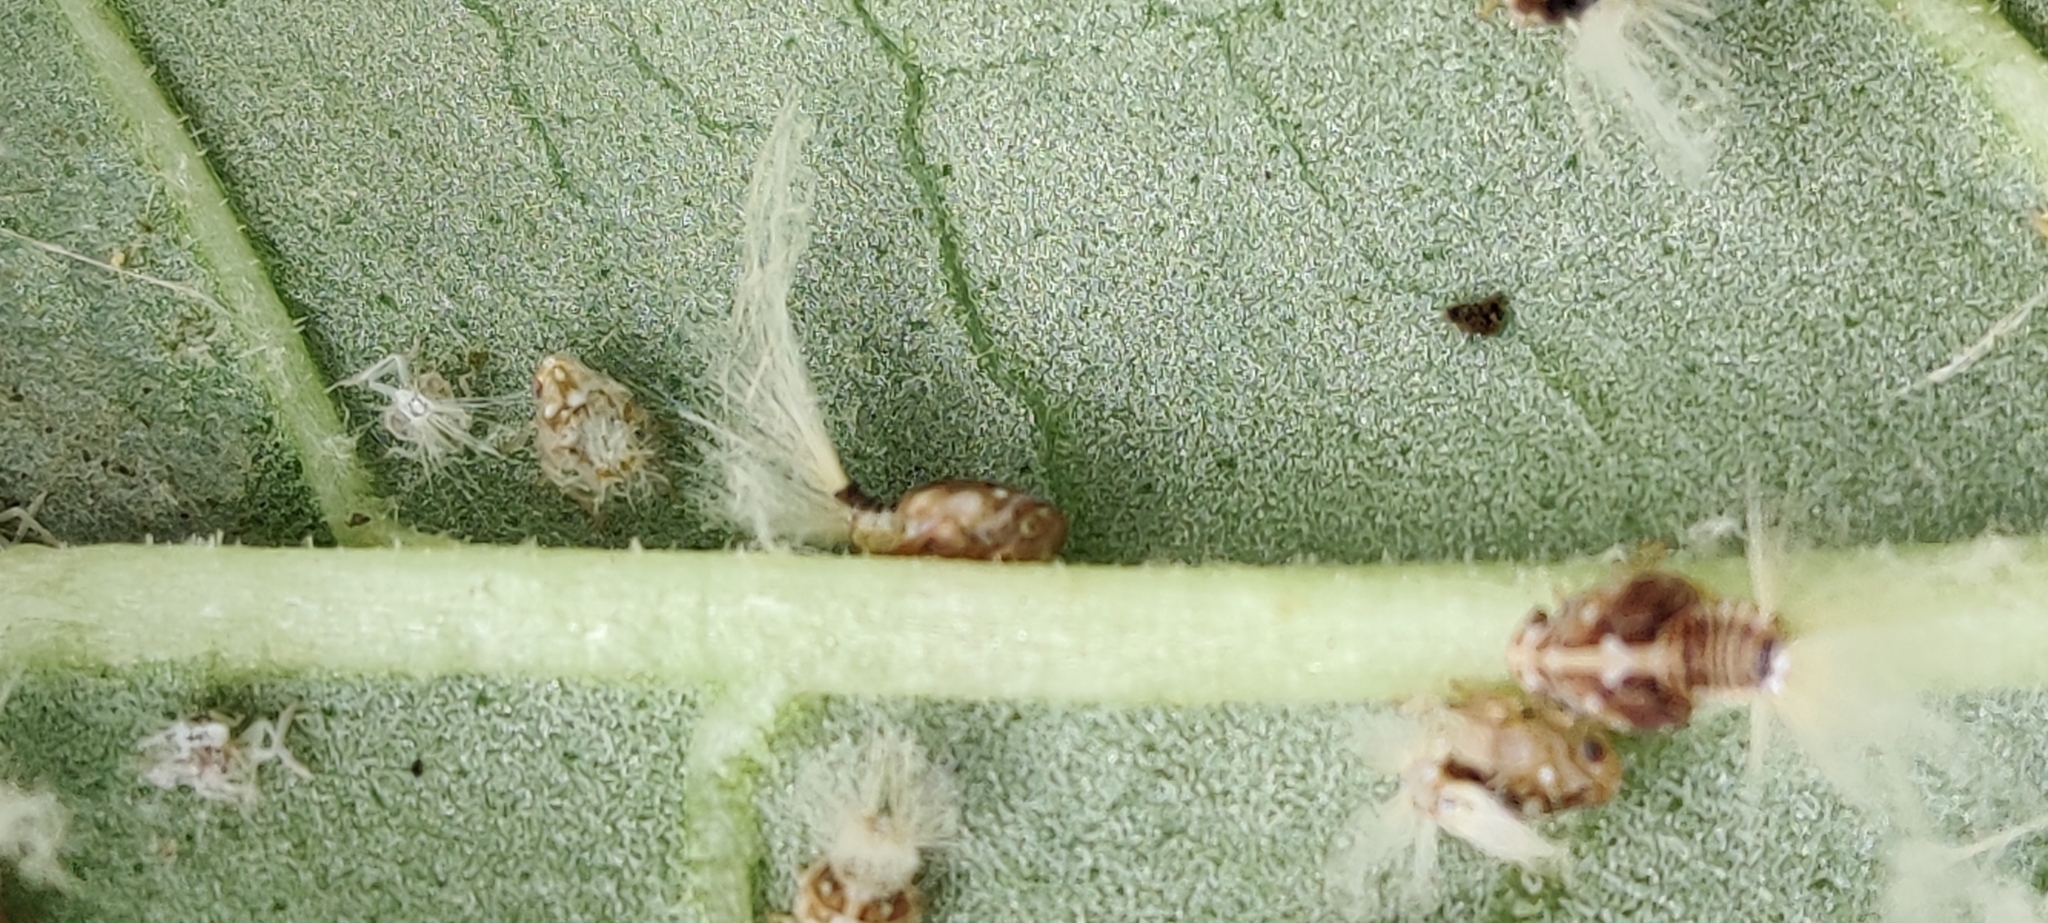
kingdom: Animalia
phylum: Arthropoda
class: Insecta
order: Hemiptera
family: Ricaniidae
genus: Scolypopa
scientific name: Scolypopa australis
